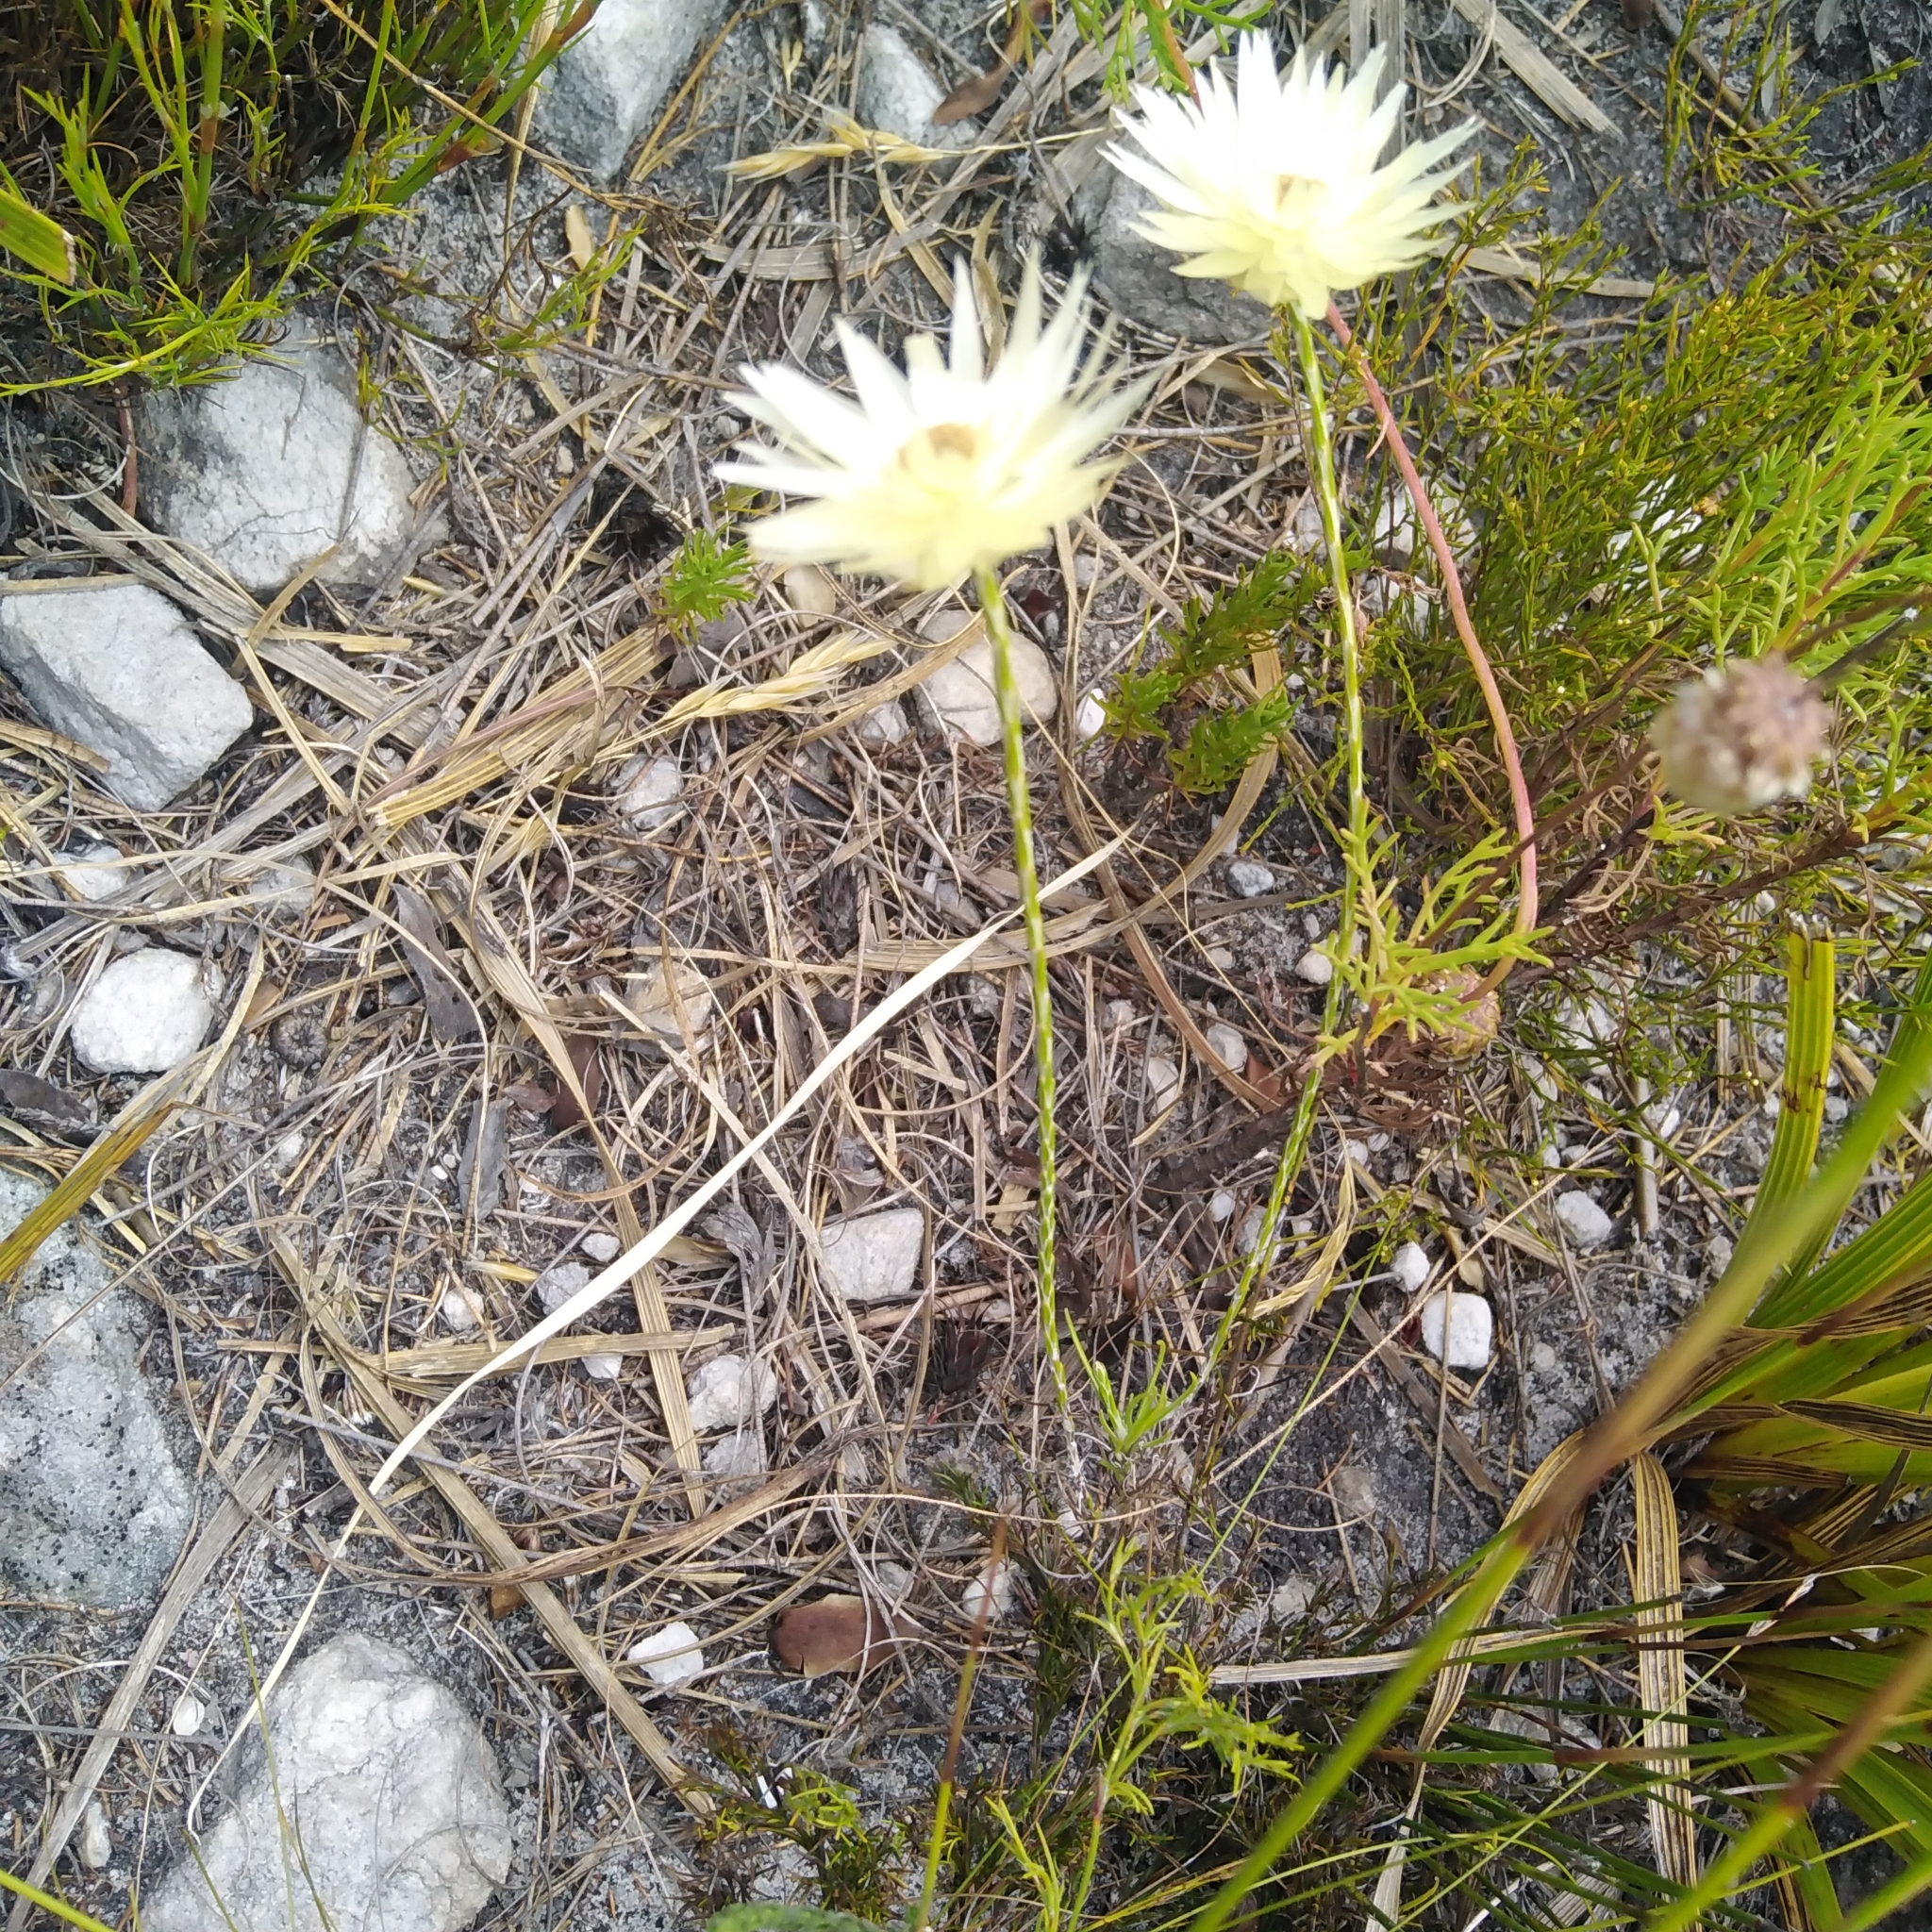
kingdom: Plantae
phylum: Tracheophyta
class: Magnoliopsida
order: Asterales
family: Asteraceae
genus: Edmondia
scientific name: Edmondia sesamoides
